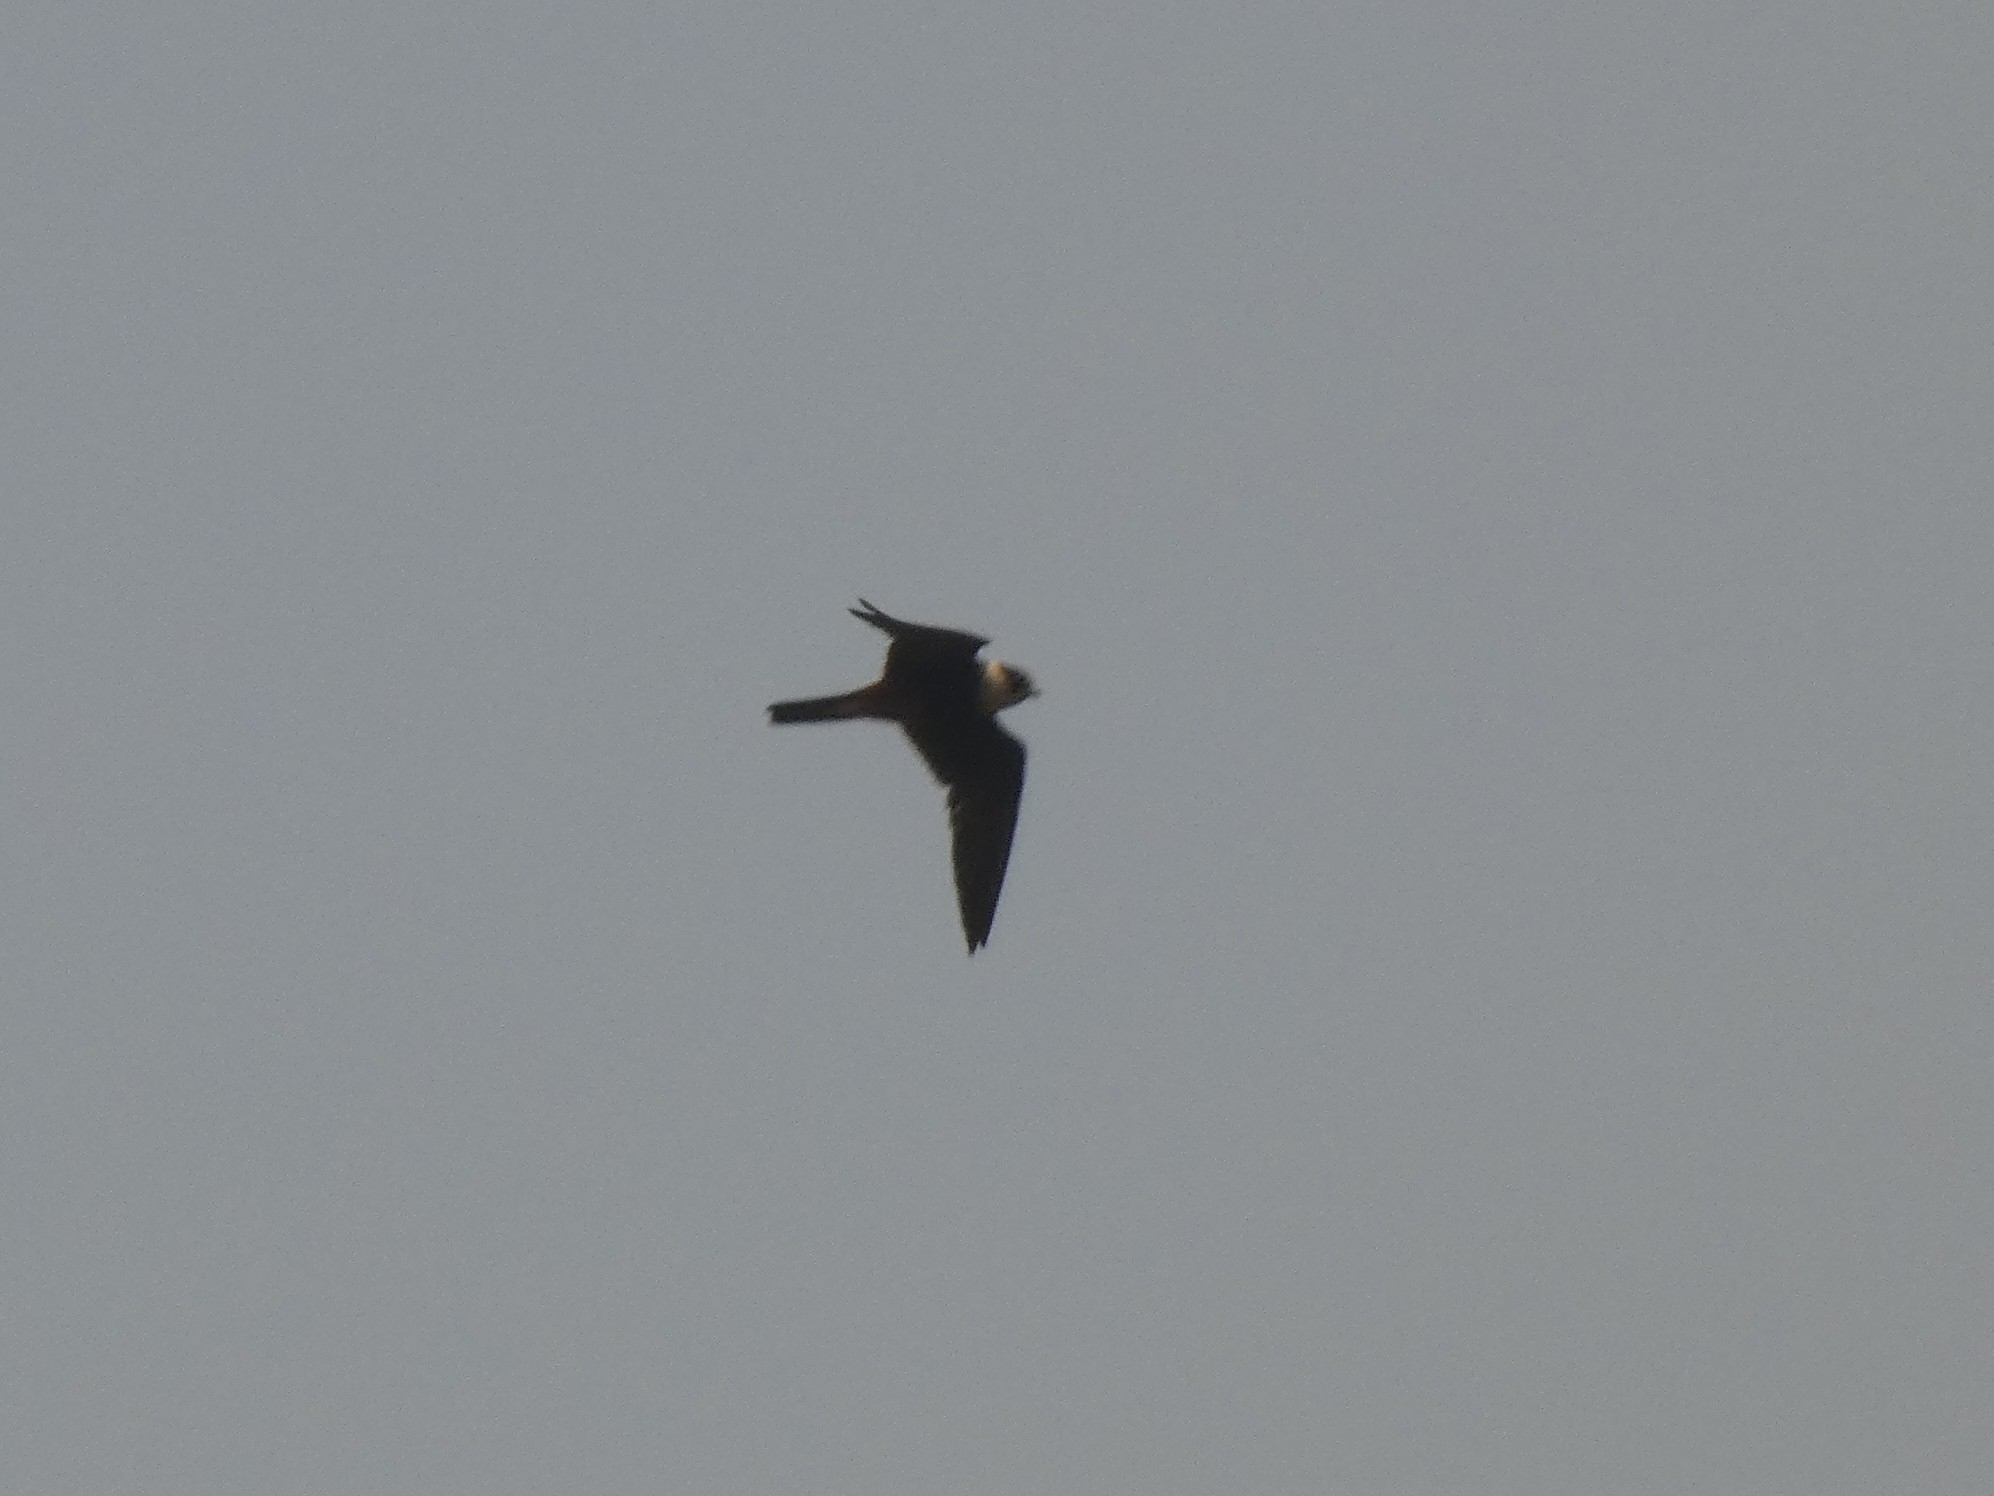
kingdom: Animalia
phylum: Chordata
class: Aves
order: Falconiformes
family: Falconidae
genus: Falco
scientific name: Falco rufigularis
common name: Bat falcon
